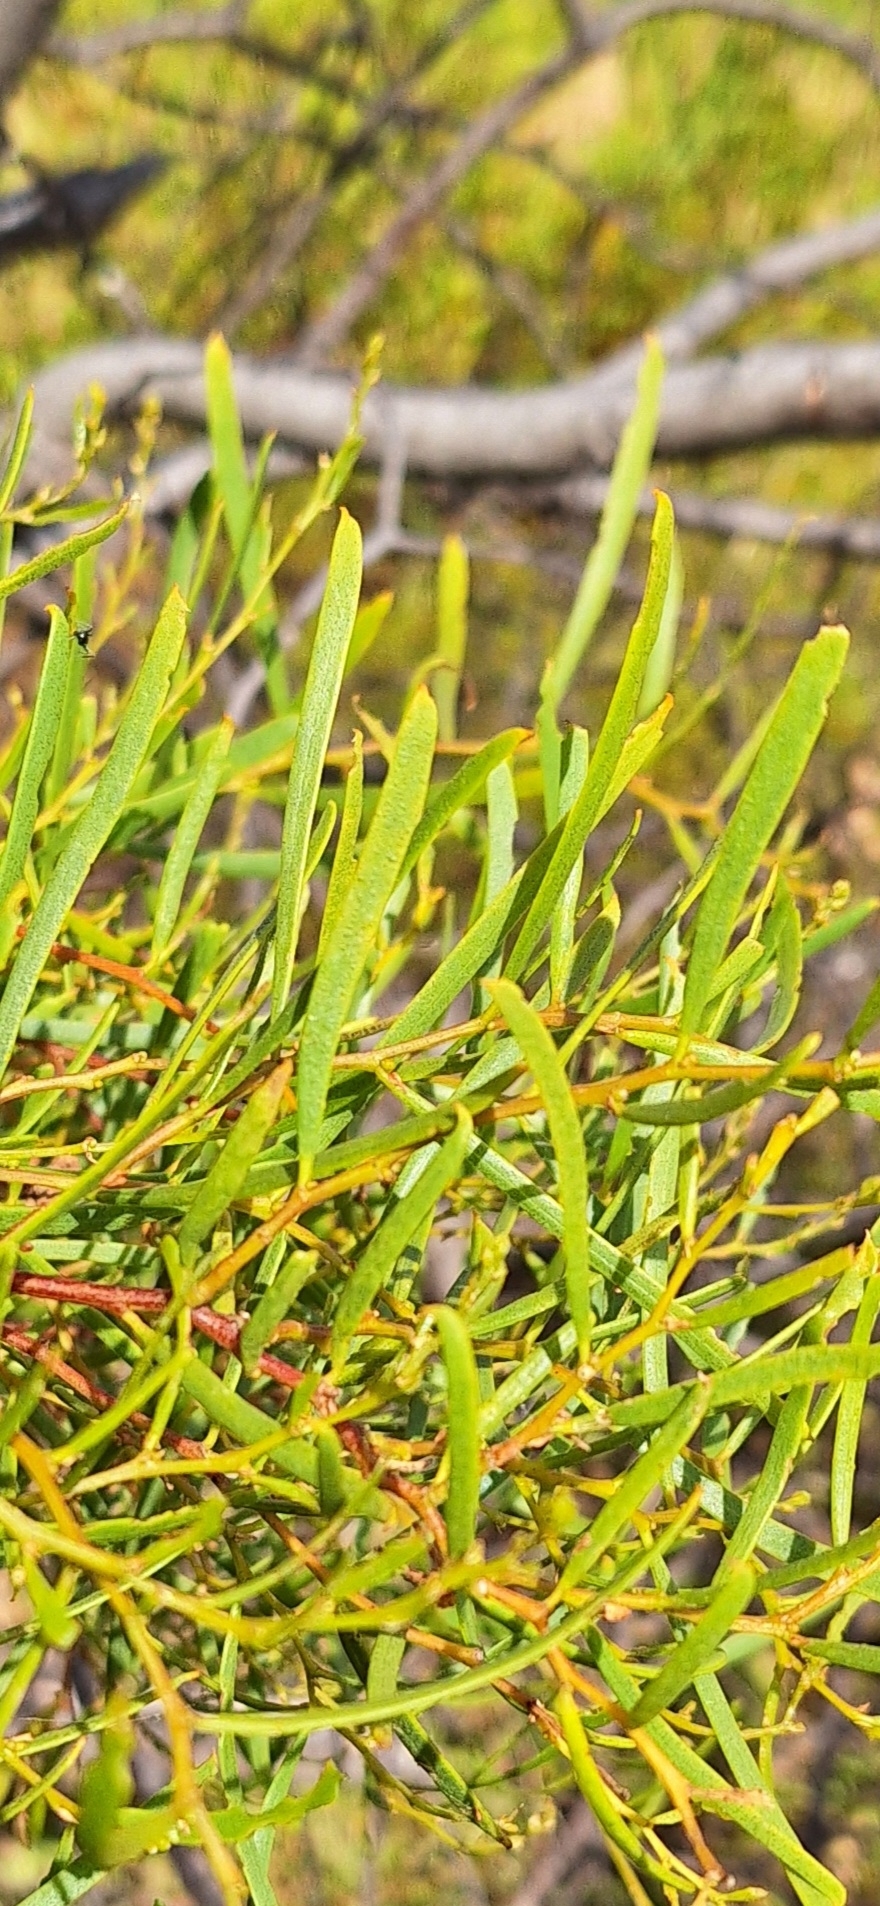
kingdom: Plantae
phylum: Tracheophyta
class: Magnoliopsida
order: Fabales
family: Fabaceae
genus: Acacia
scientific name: Acacia ligulata
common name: Dune wattle
